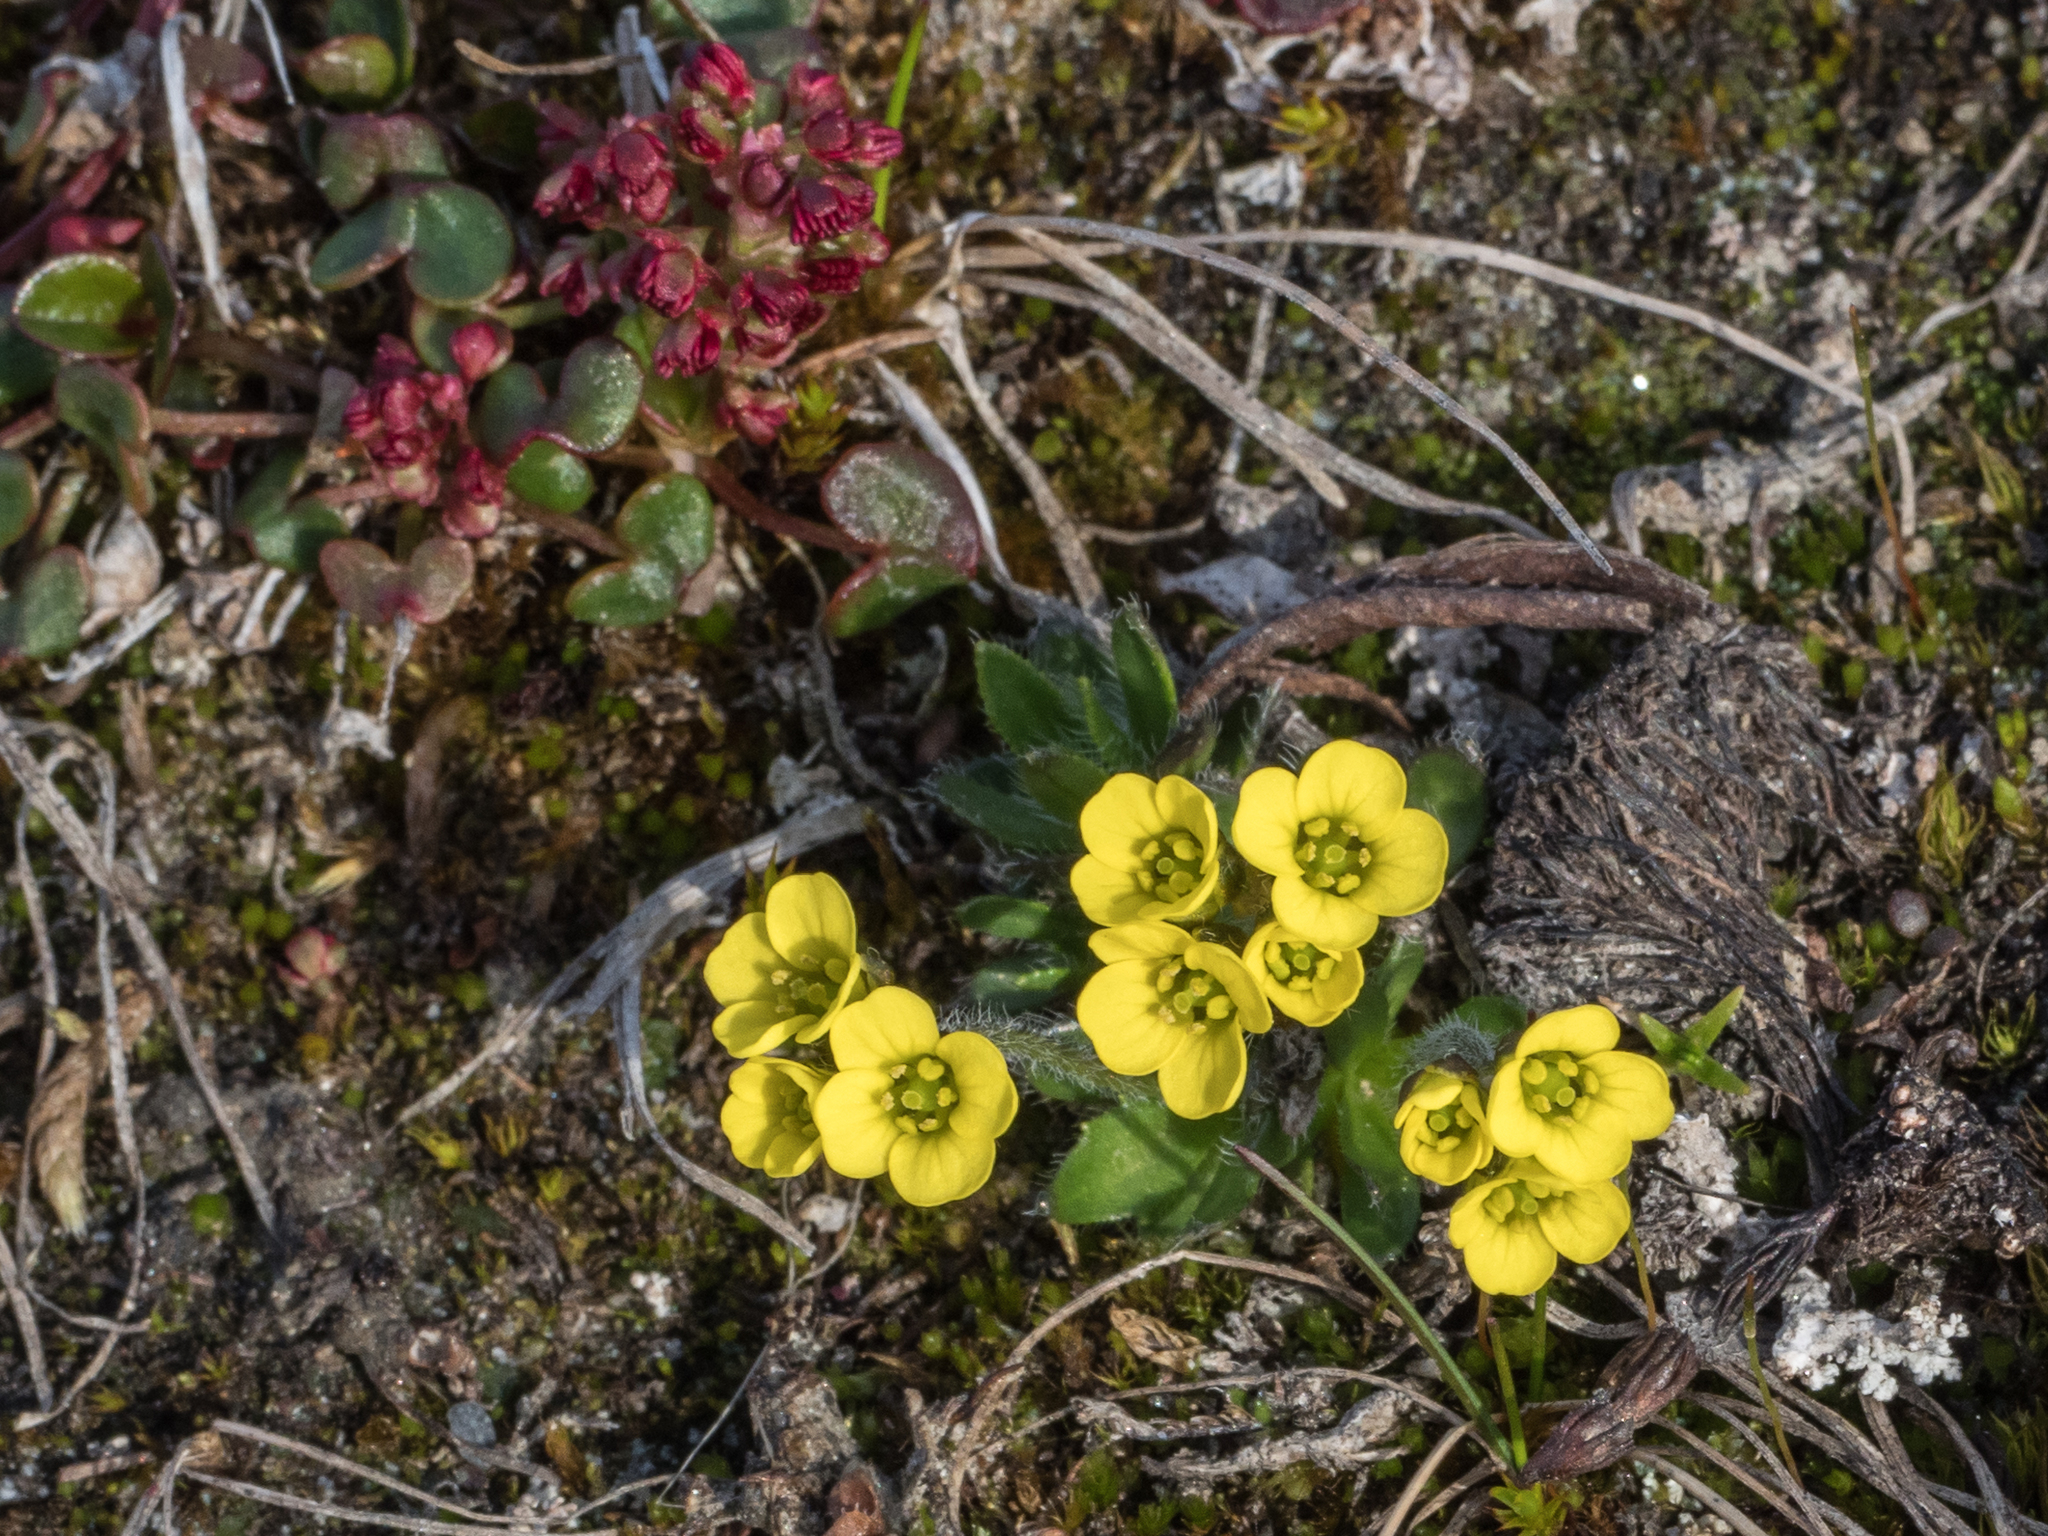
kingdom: Plantae
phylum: Tracheophyta
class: Magnoliopsida
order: Brassicales
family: Brassicaceae
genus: Draba
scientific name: Draba oxycarpa
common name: Sharp-fruited whitlow-grass
